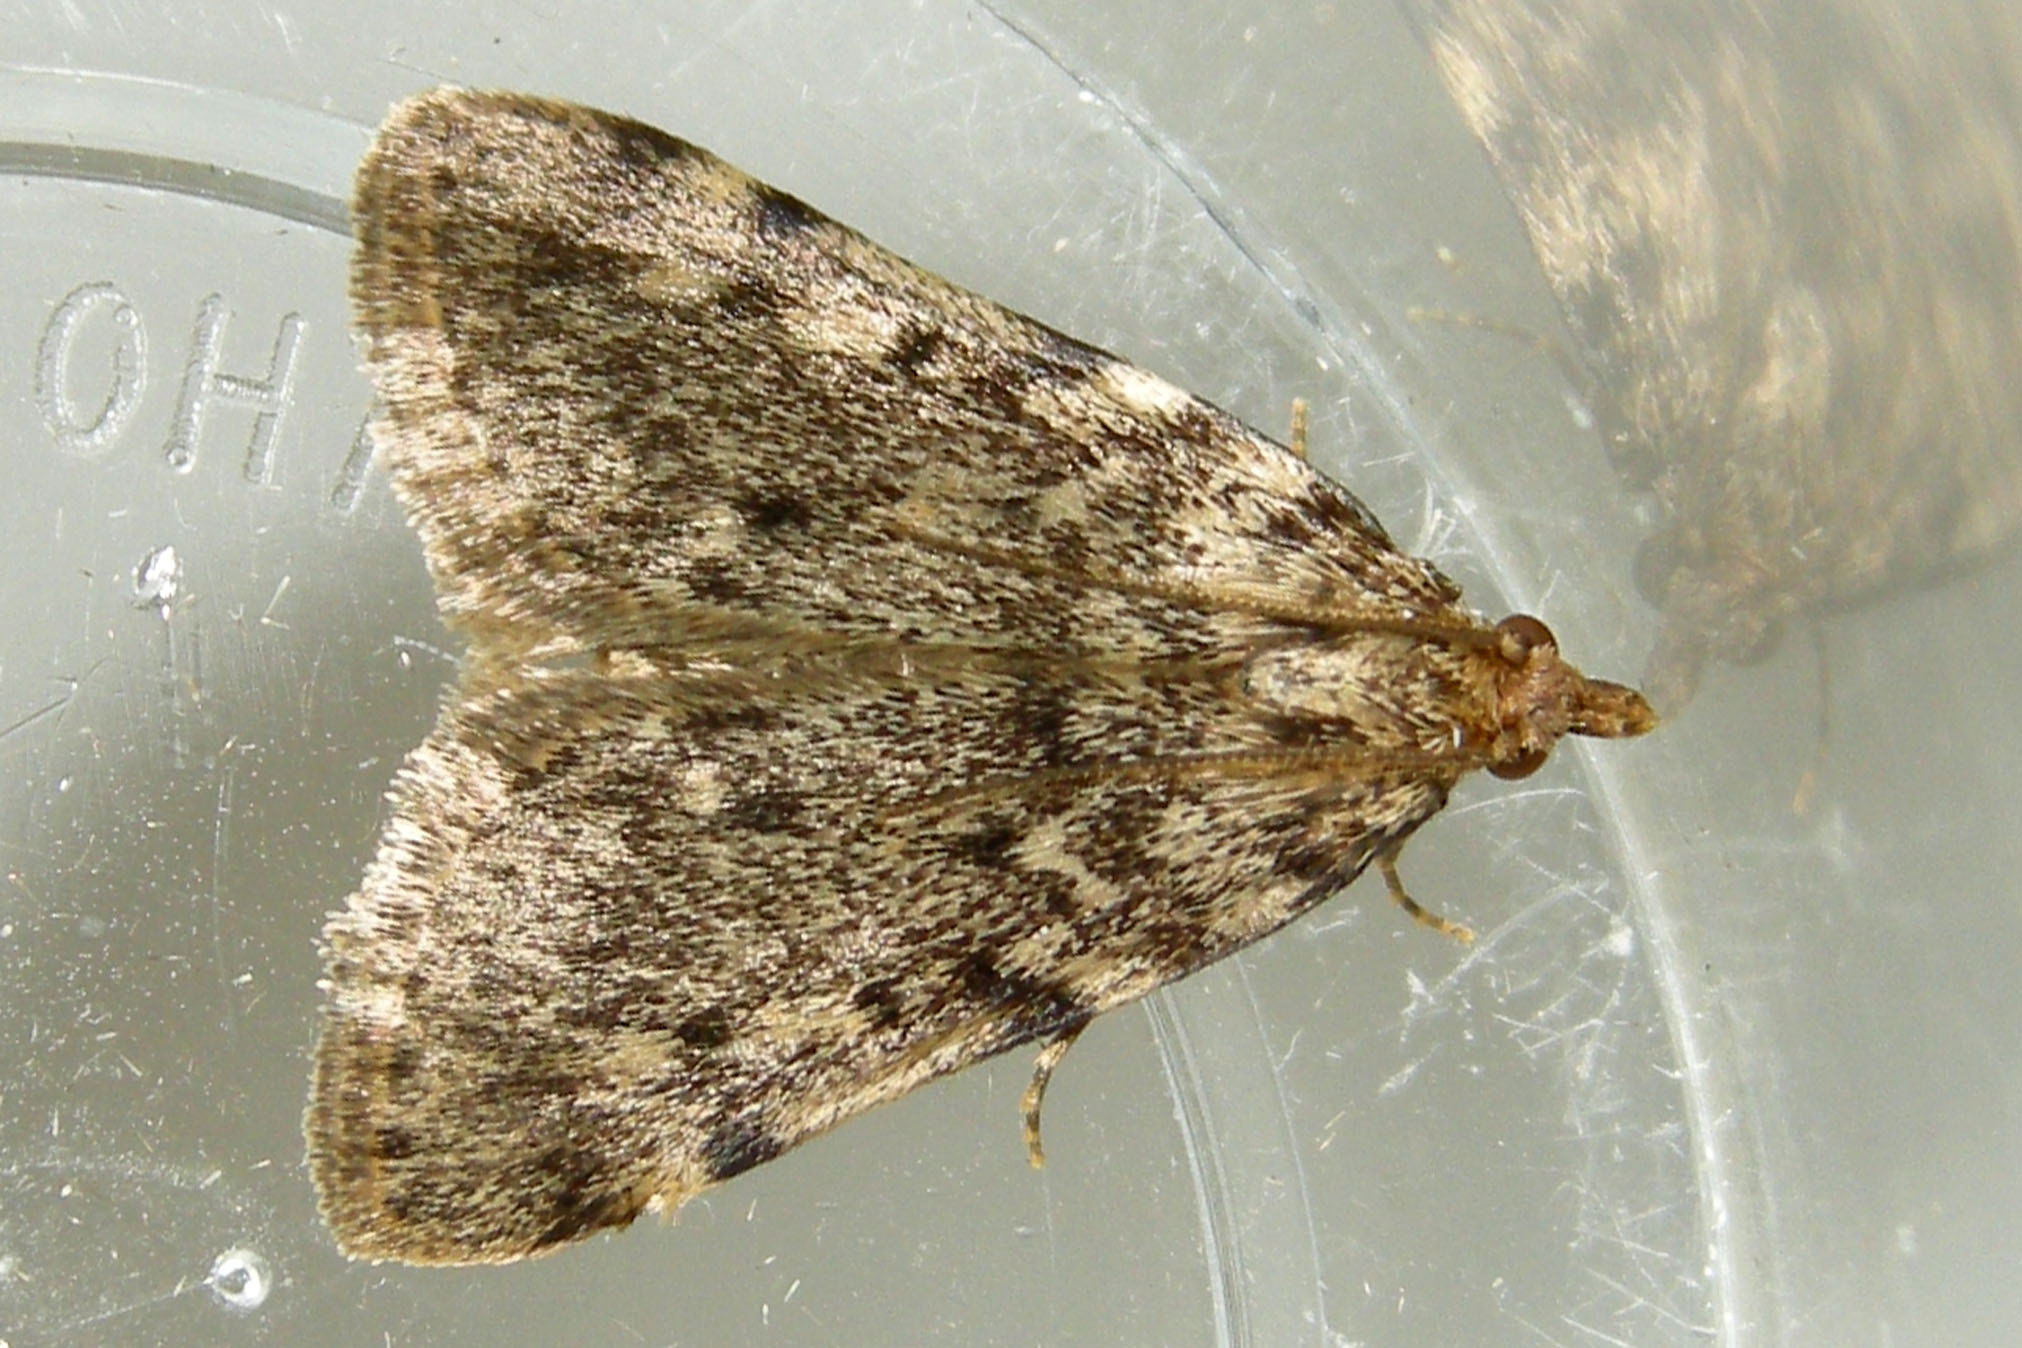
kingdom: Animalia
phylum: Arthropoda
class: Insecta
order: Lepidoptera
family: Pyralidae
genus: Aglossa
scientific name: Aglossa pinguinalis
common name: Large tabby
